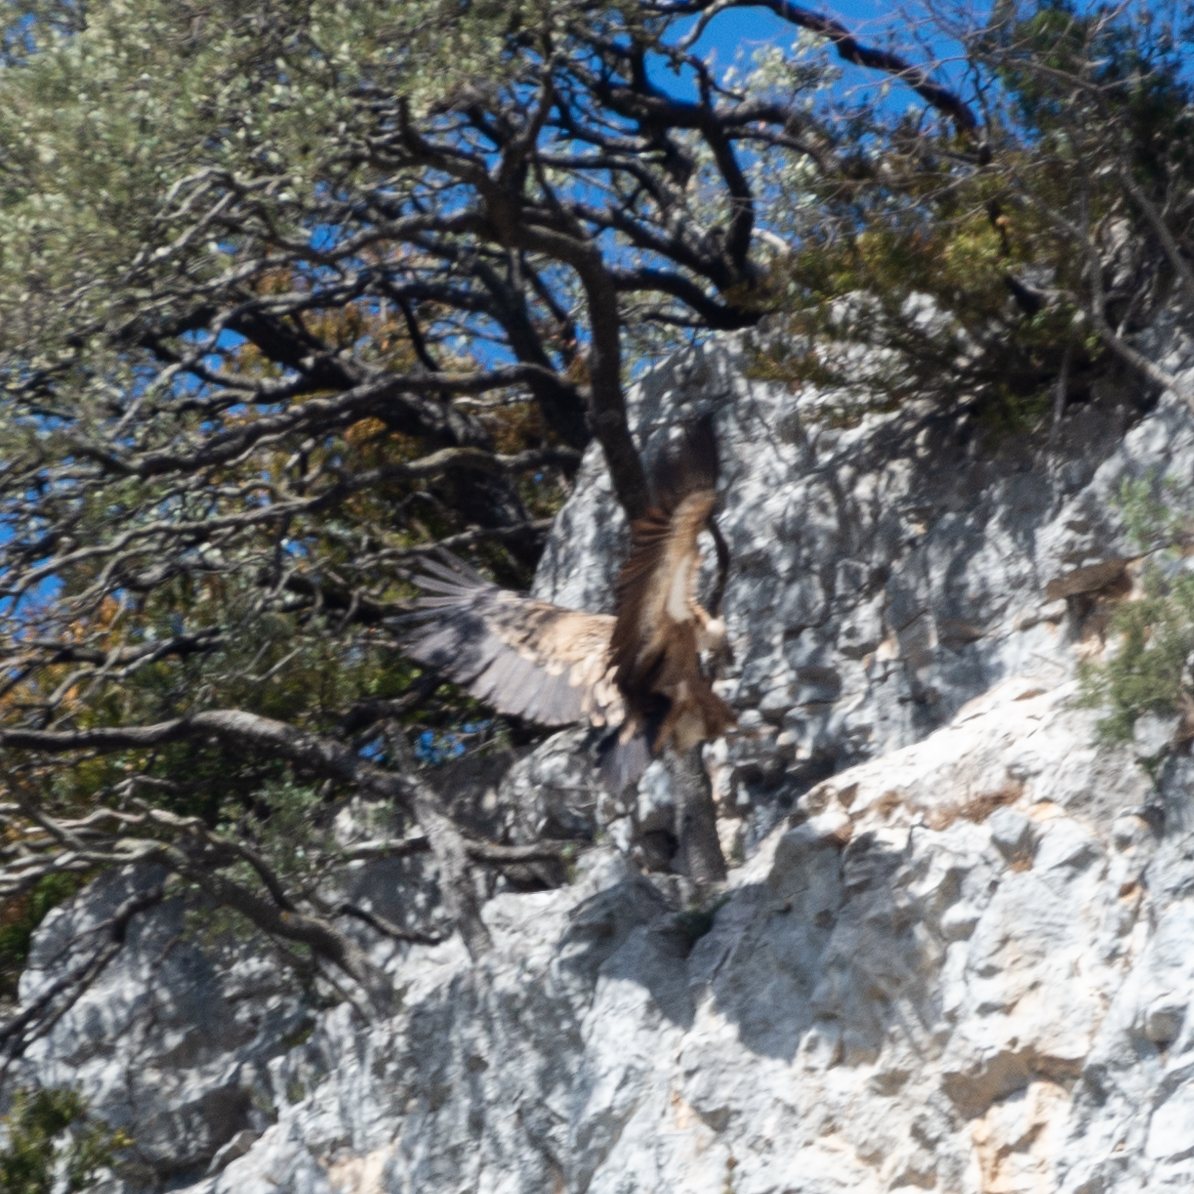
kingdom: Animalia
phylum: Chordata
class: Aves
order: Accipitriformes
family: Accipitridae
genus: Gyps
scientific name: Gyps fulvus
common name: Griffon vulture
